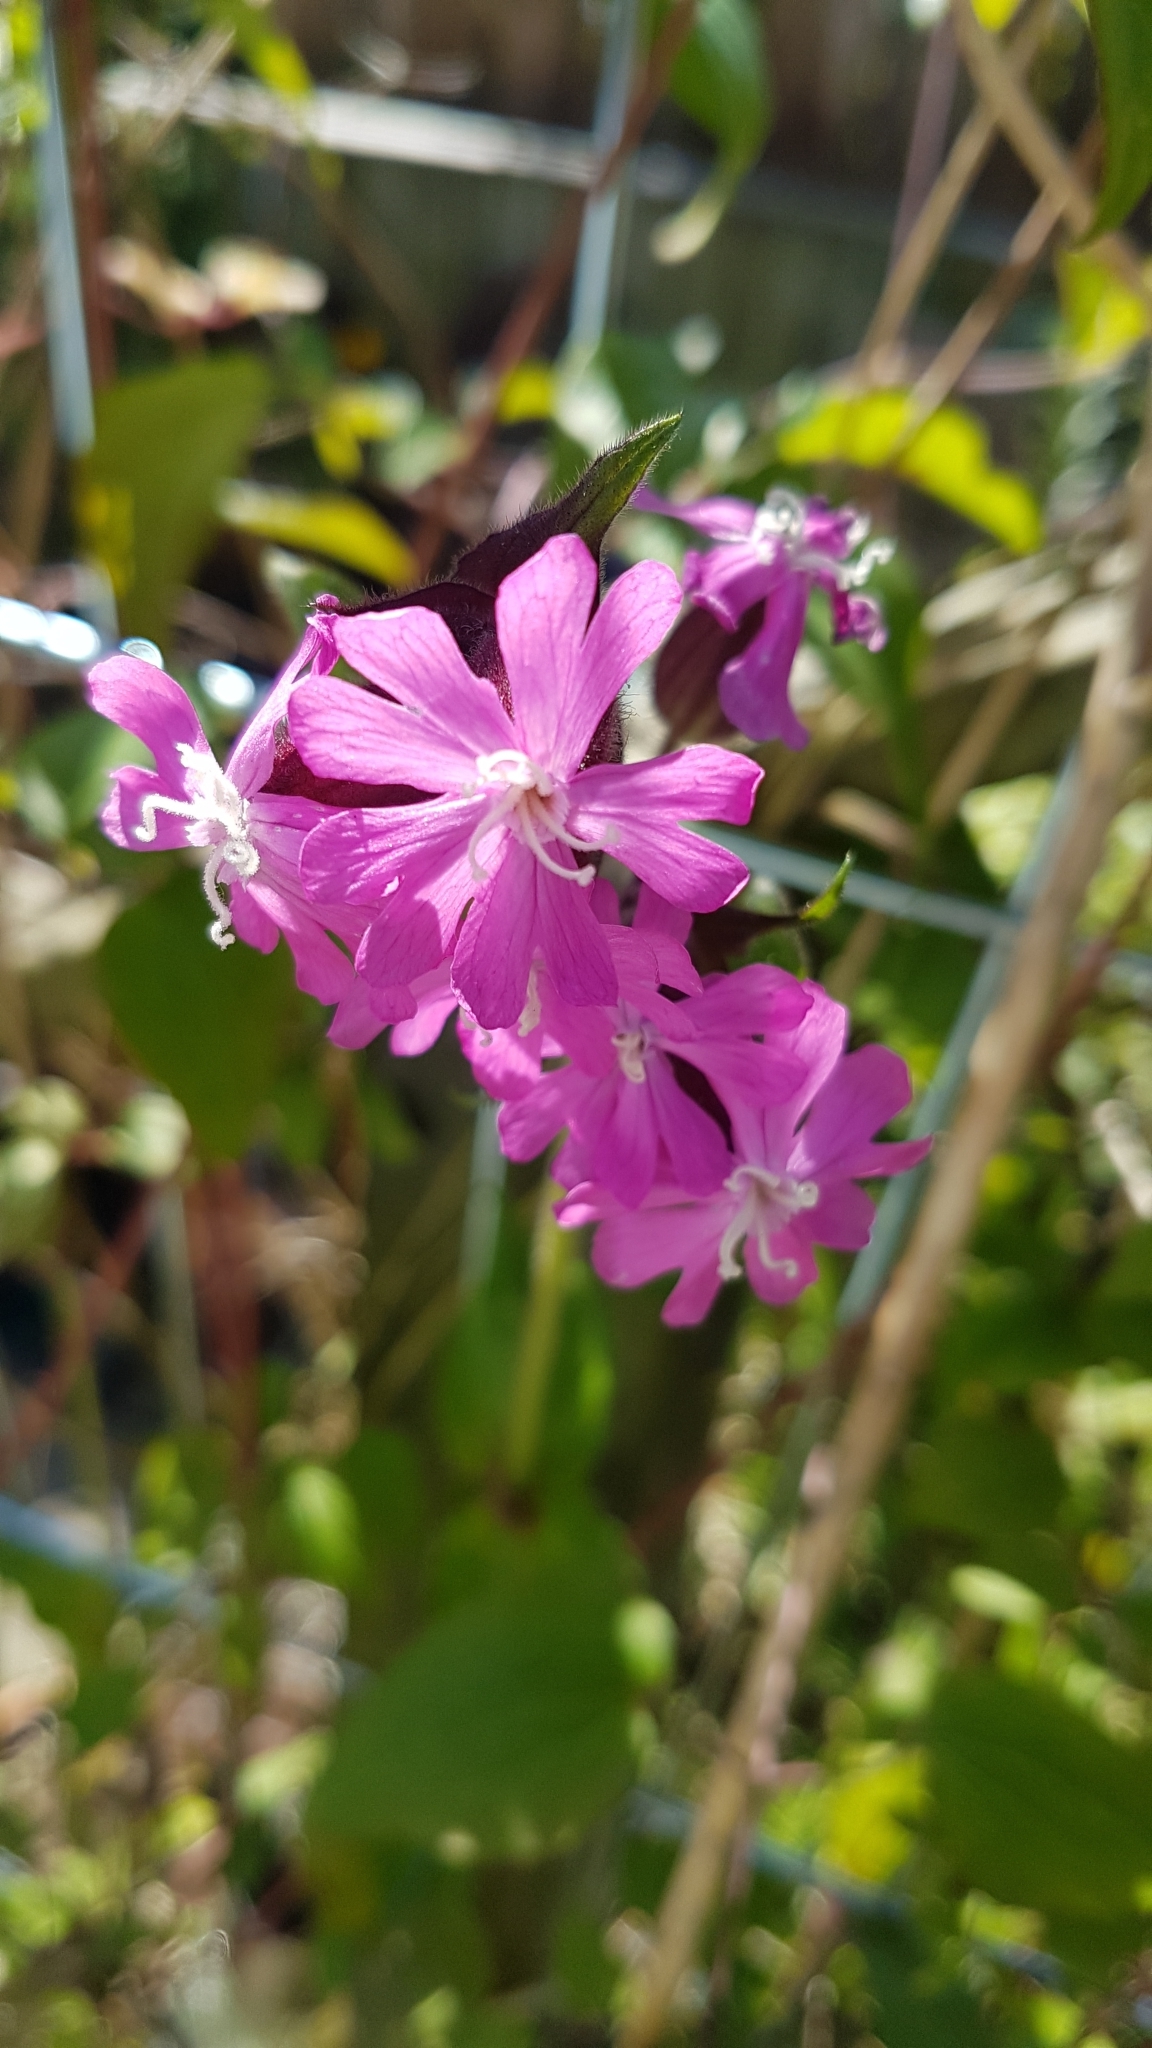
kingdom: Plantae
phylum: Tracheophyta
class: Magnoliopsida
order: Caryophyllales
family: Caryophyllaceae
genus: Silene
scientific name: Silene dioica
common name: Red campion
